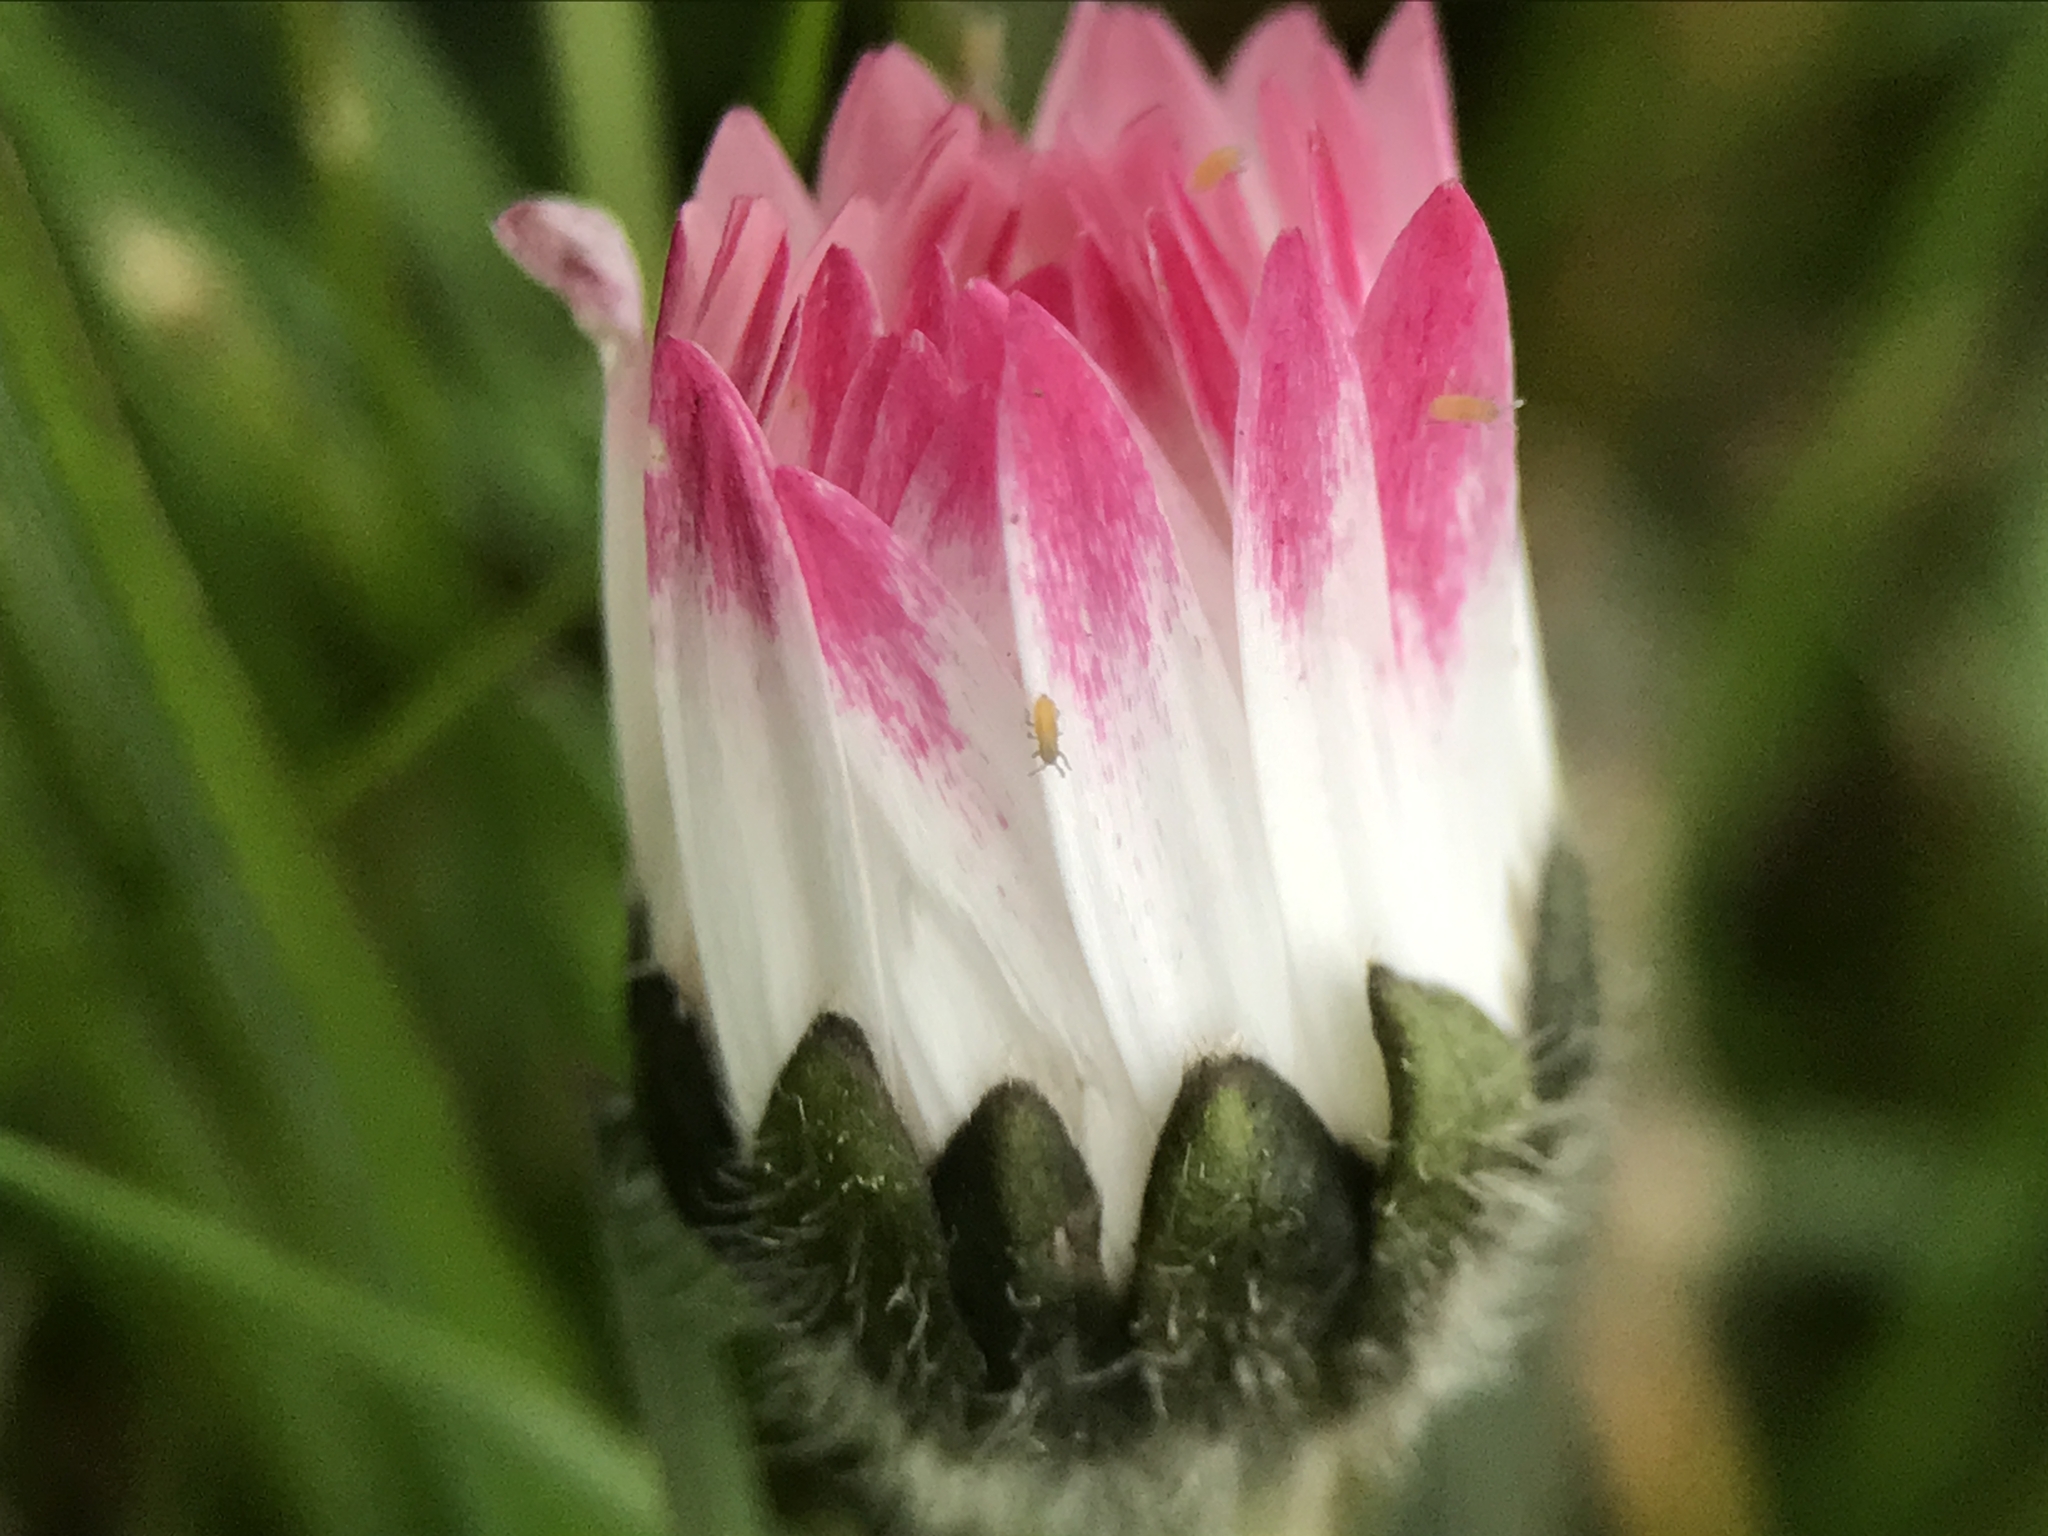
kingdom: Plantae
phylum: Tracheophyta
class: Magnoliopsida
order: Asterales
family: Asteraceae
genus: Bellis
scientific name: Bellis perennis
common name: Lawndaisy
